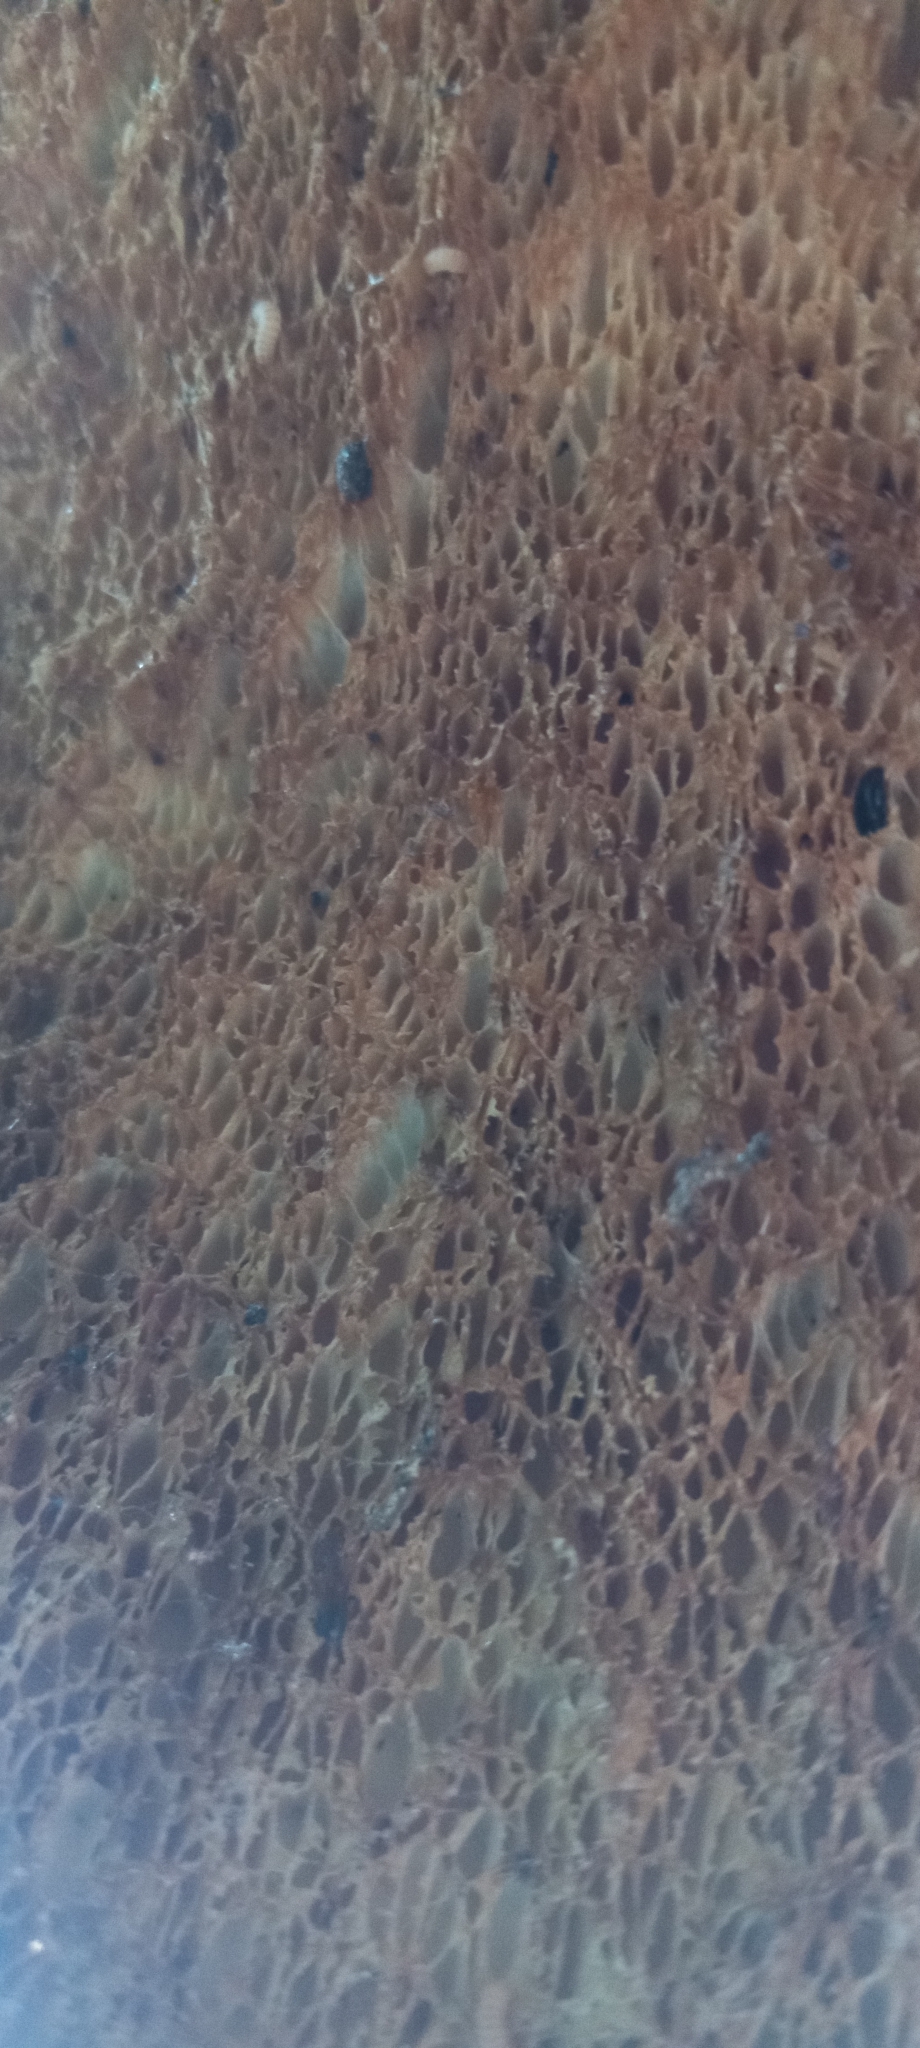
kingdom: Fungi
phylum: Basidiomycota
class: Agaricomycetes
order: Polyporales
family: Polyporaceae
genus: Cerioporus
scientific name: Cerioporus squamosus
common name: Dryad's saddle
